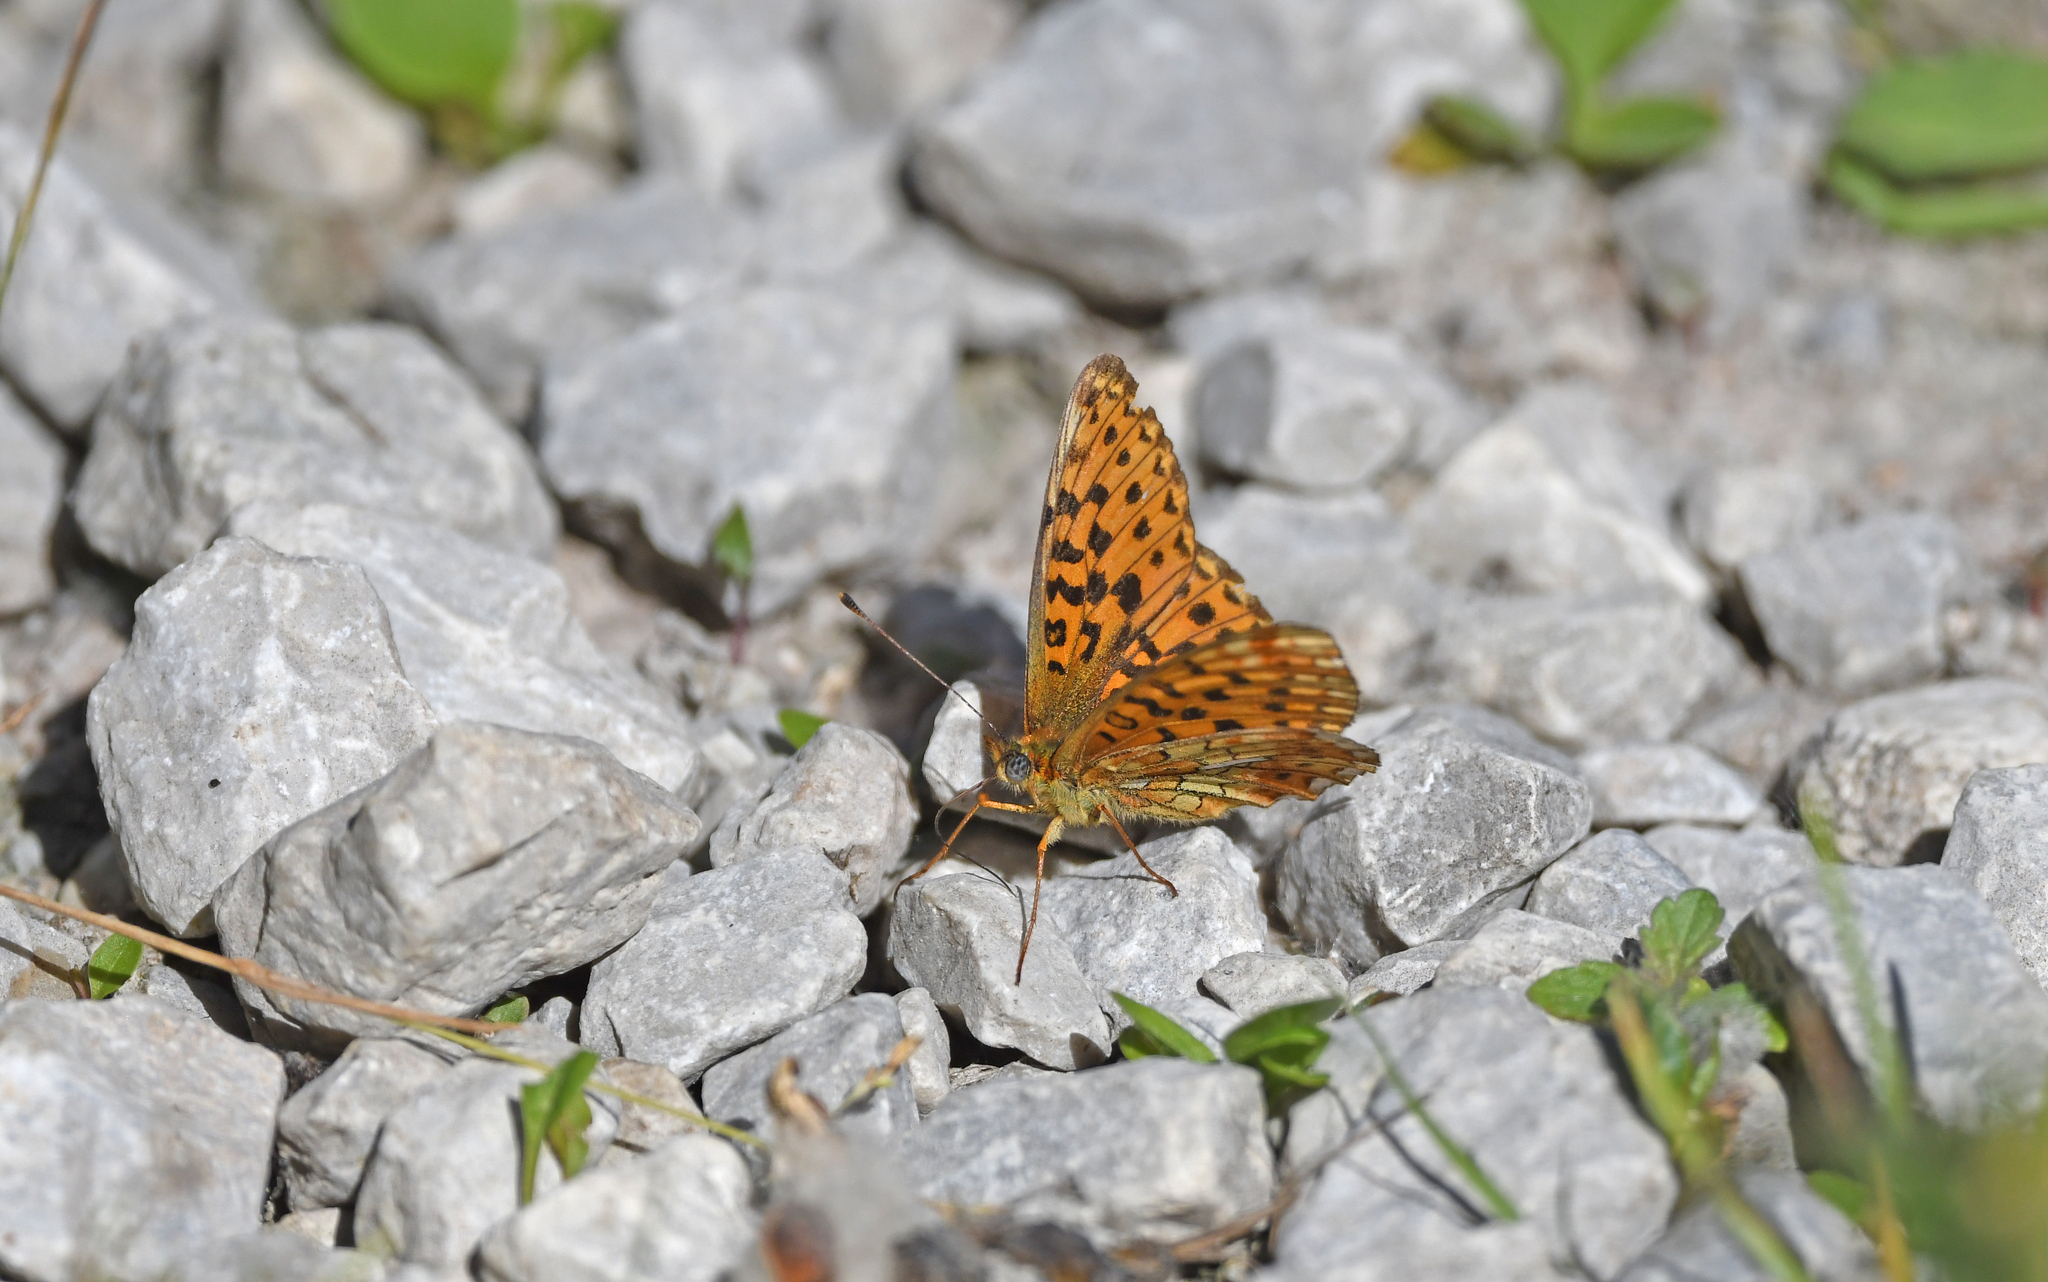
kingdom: Animalia
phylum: Arthropoda
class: Insecta
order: Lepidoptera
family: Nymphalidae
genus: Clossiana
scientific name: Clossiana euphrosyne
